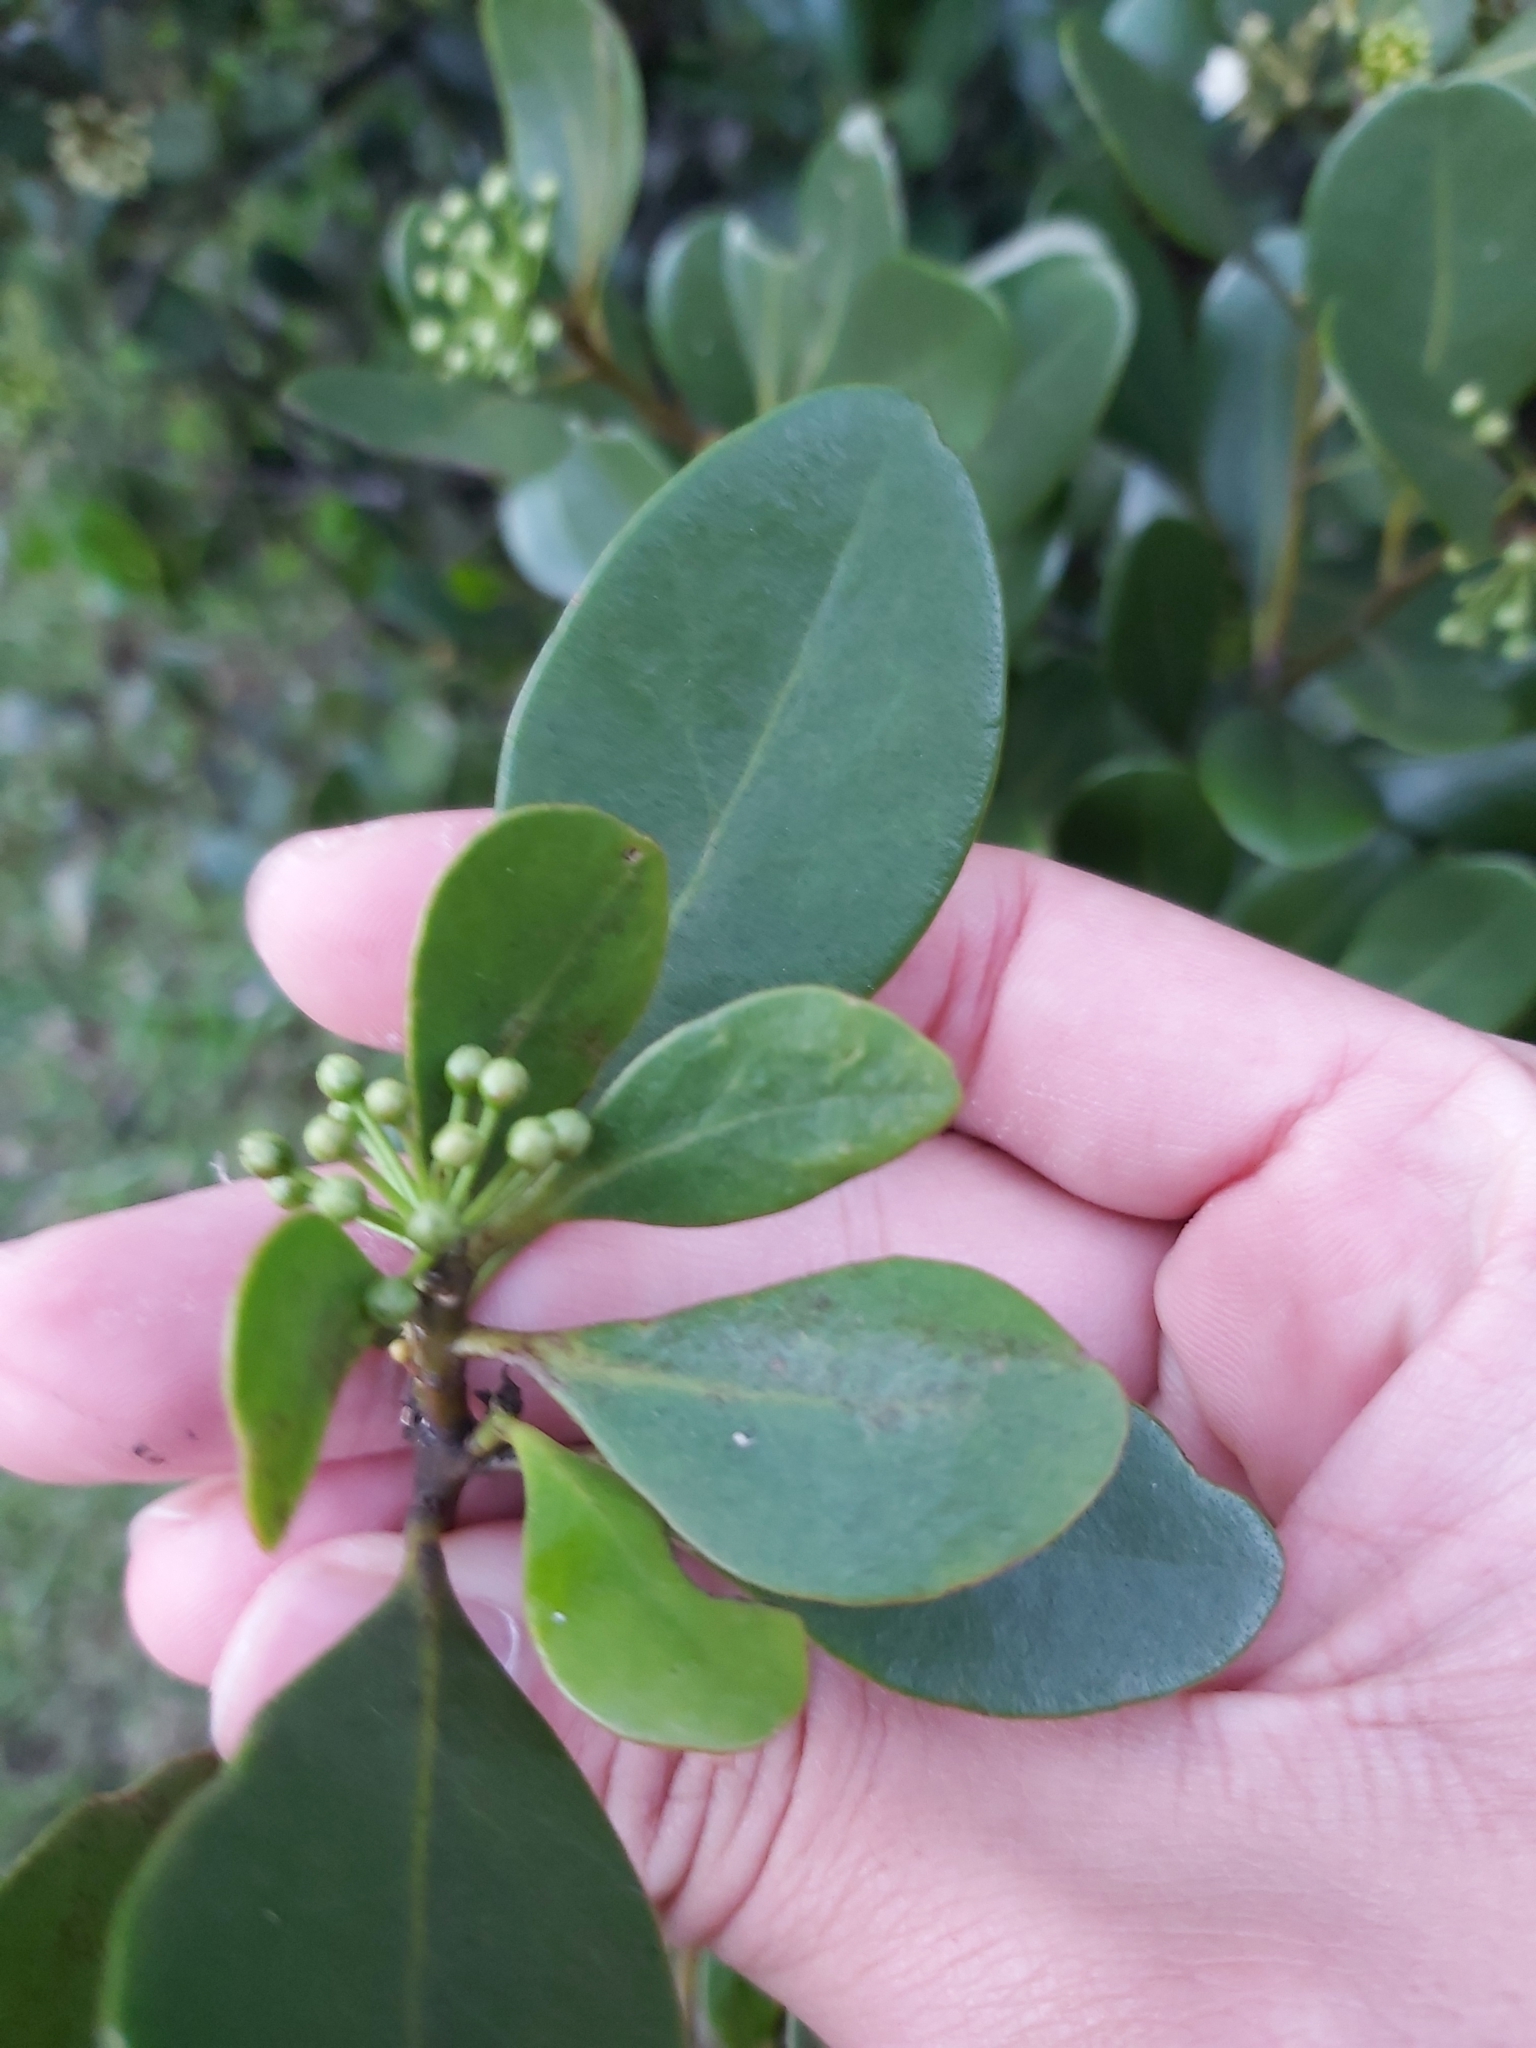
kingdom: Plantae
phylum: Tracheophyta
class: Magnoliopsida
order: Ericales
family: Primulaceae
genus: Aegiceras
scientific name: Aegiceras corniculatum
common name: River mangrove
